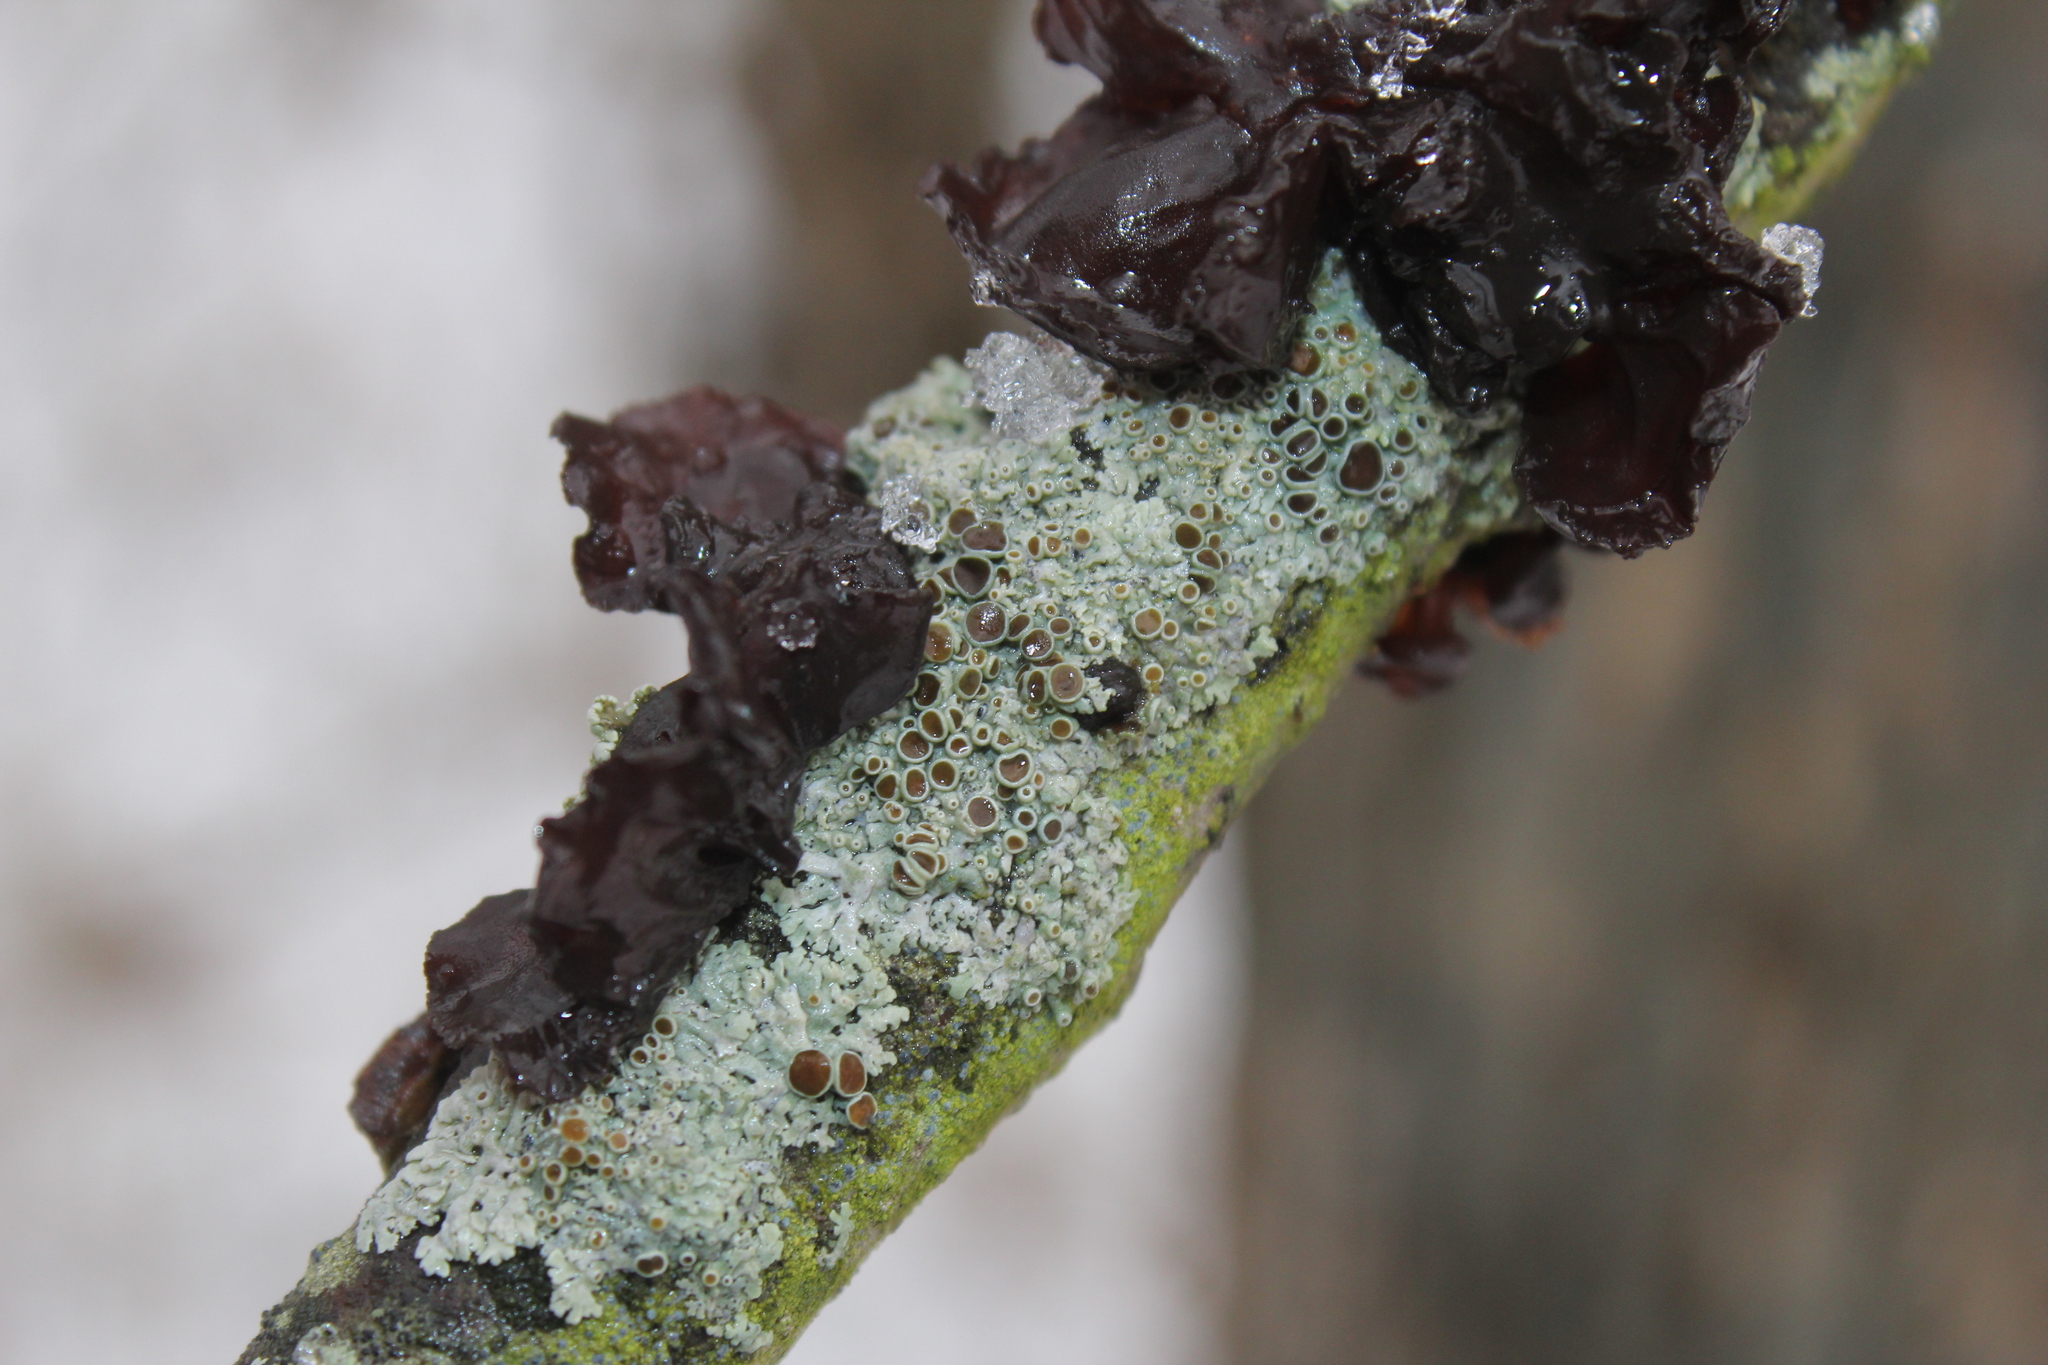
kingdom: Fungi
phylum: Ascomycota
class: Lecanoromycetes
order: Caliciales
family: Physciaceae
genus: Physcia
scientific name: Physcia stellaris
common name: Star rosette lichen
